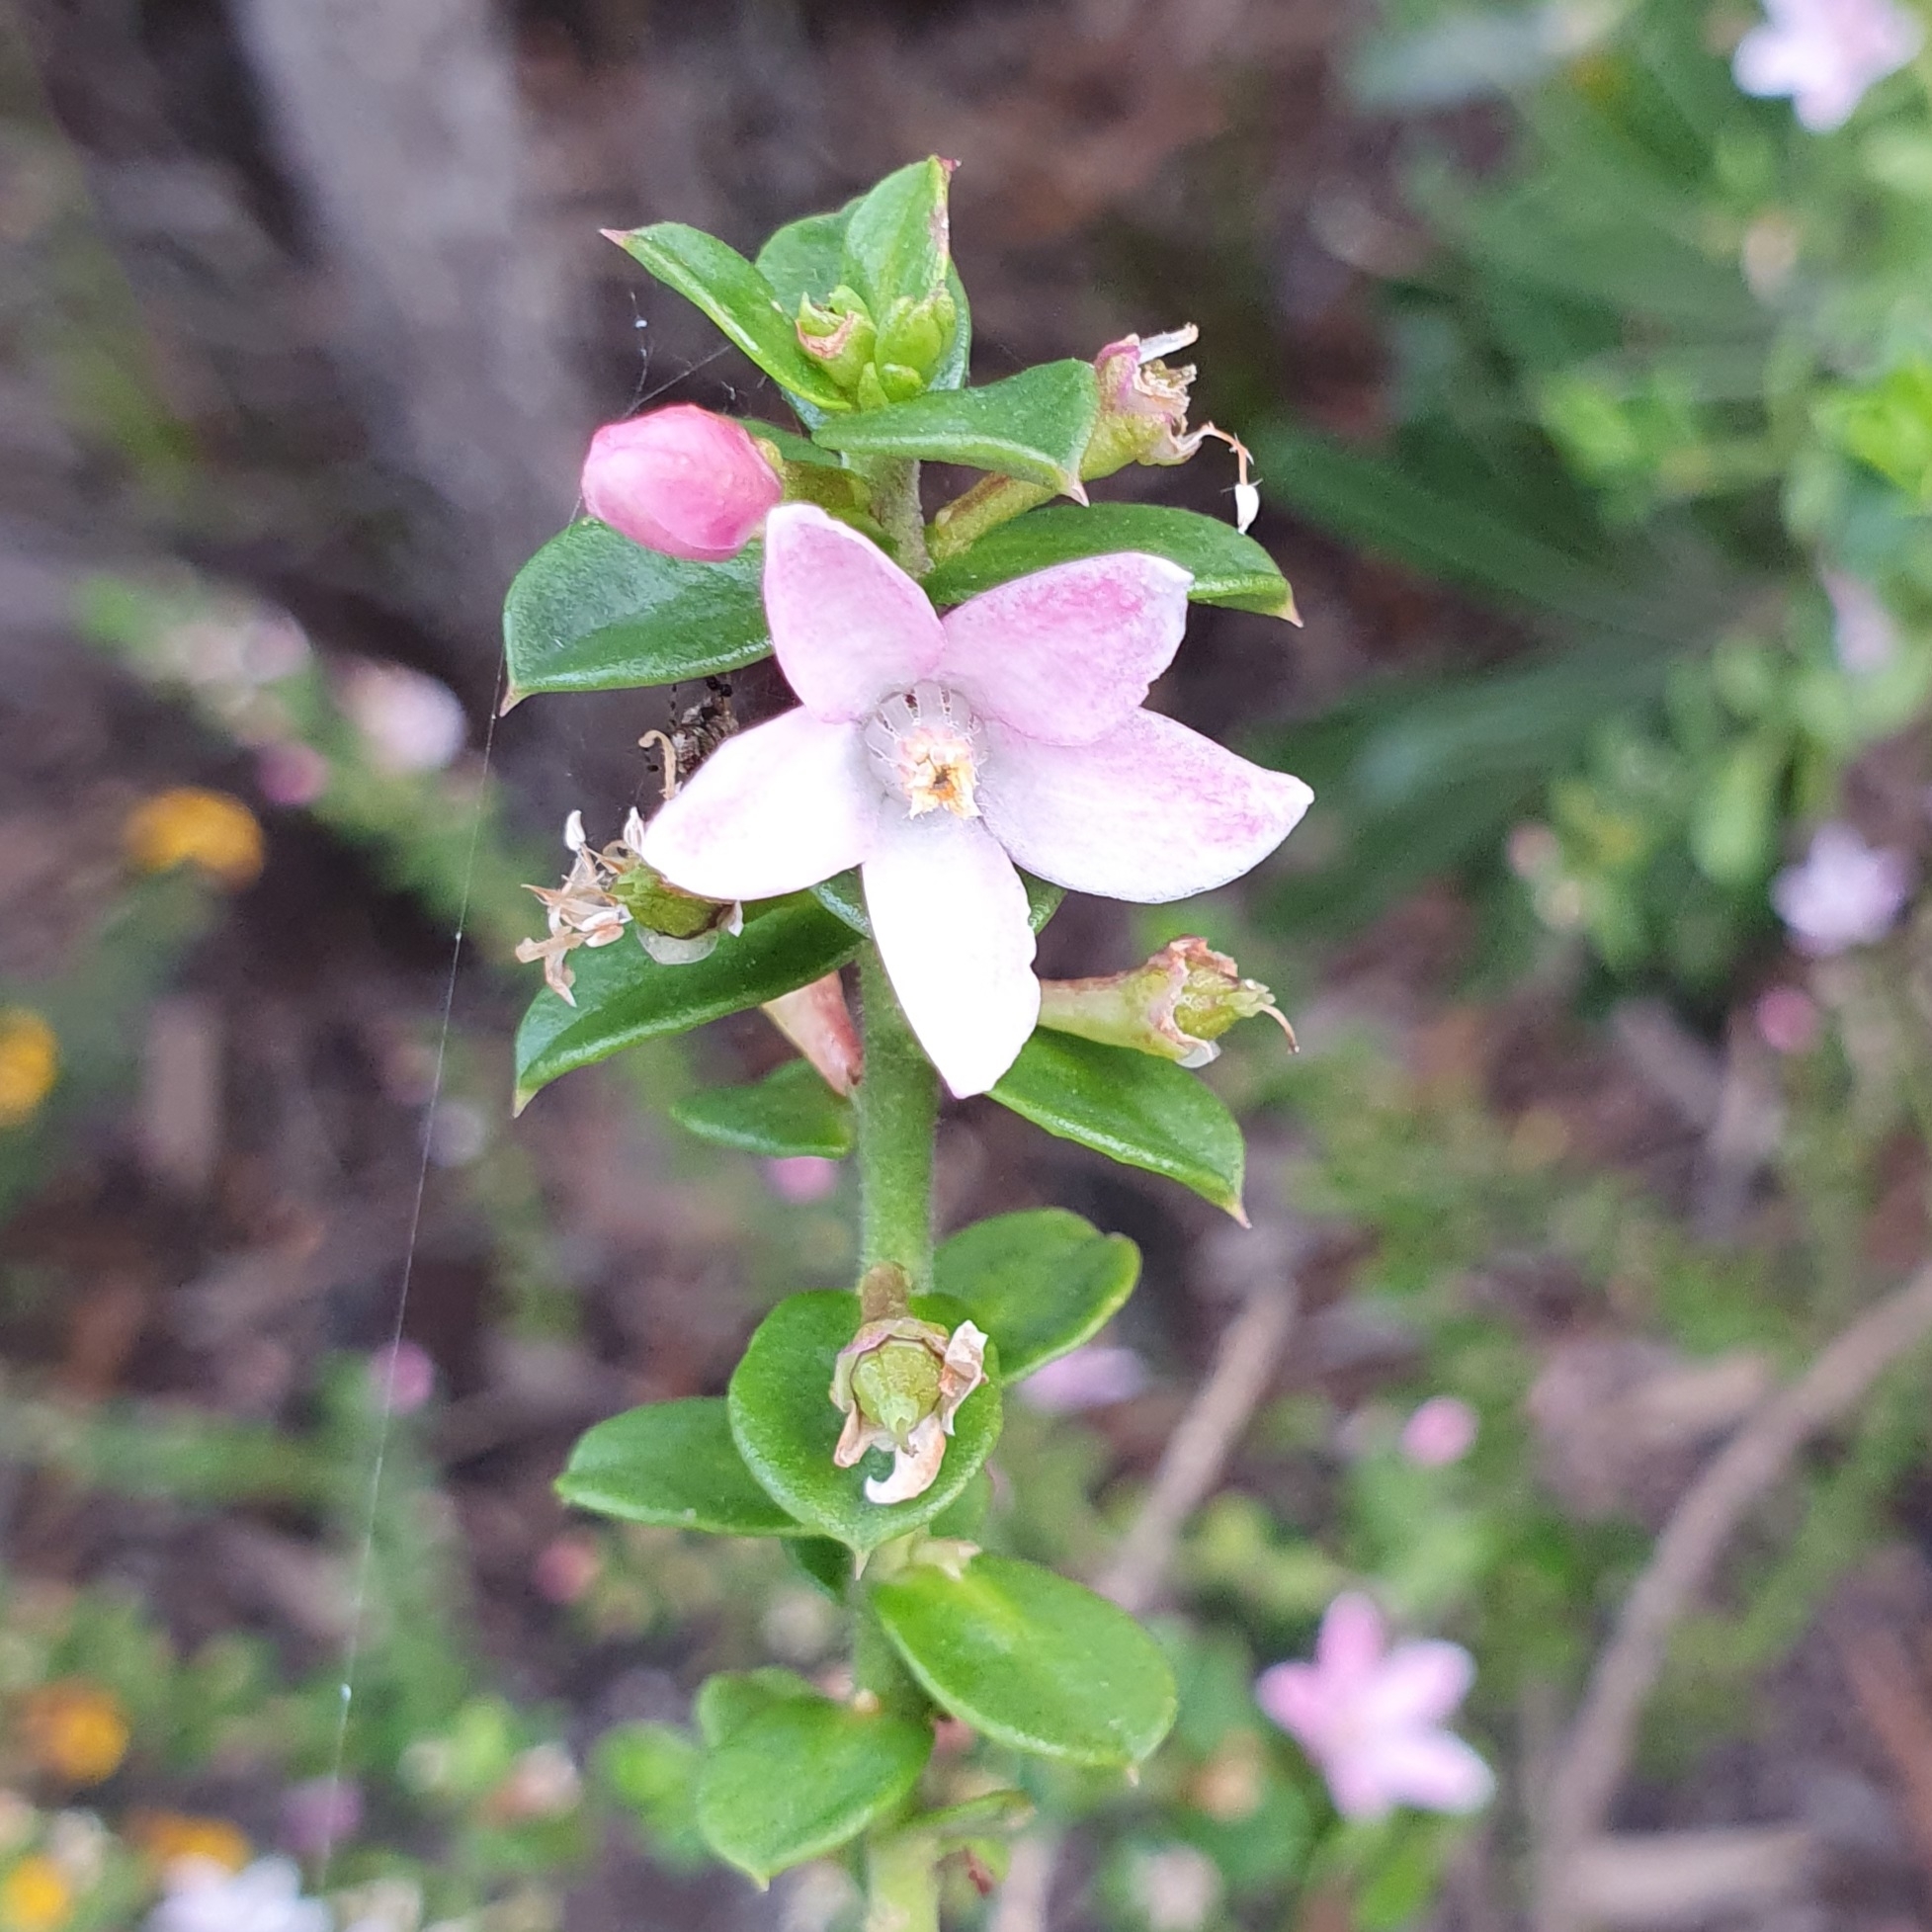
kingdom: Plantae
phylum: Tracheophyta
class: Magnoliopsida
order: Sapindales
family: Rutaceae
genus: Philotheca
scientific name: Philotheca buxifolia
